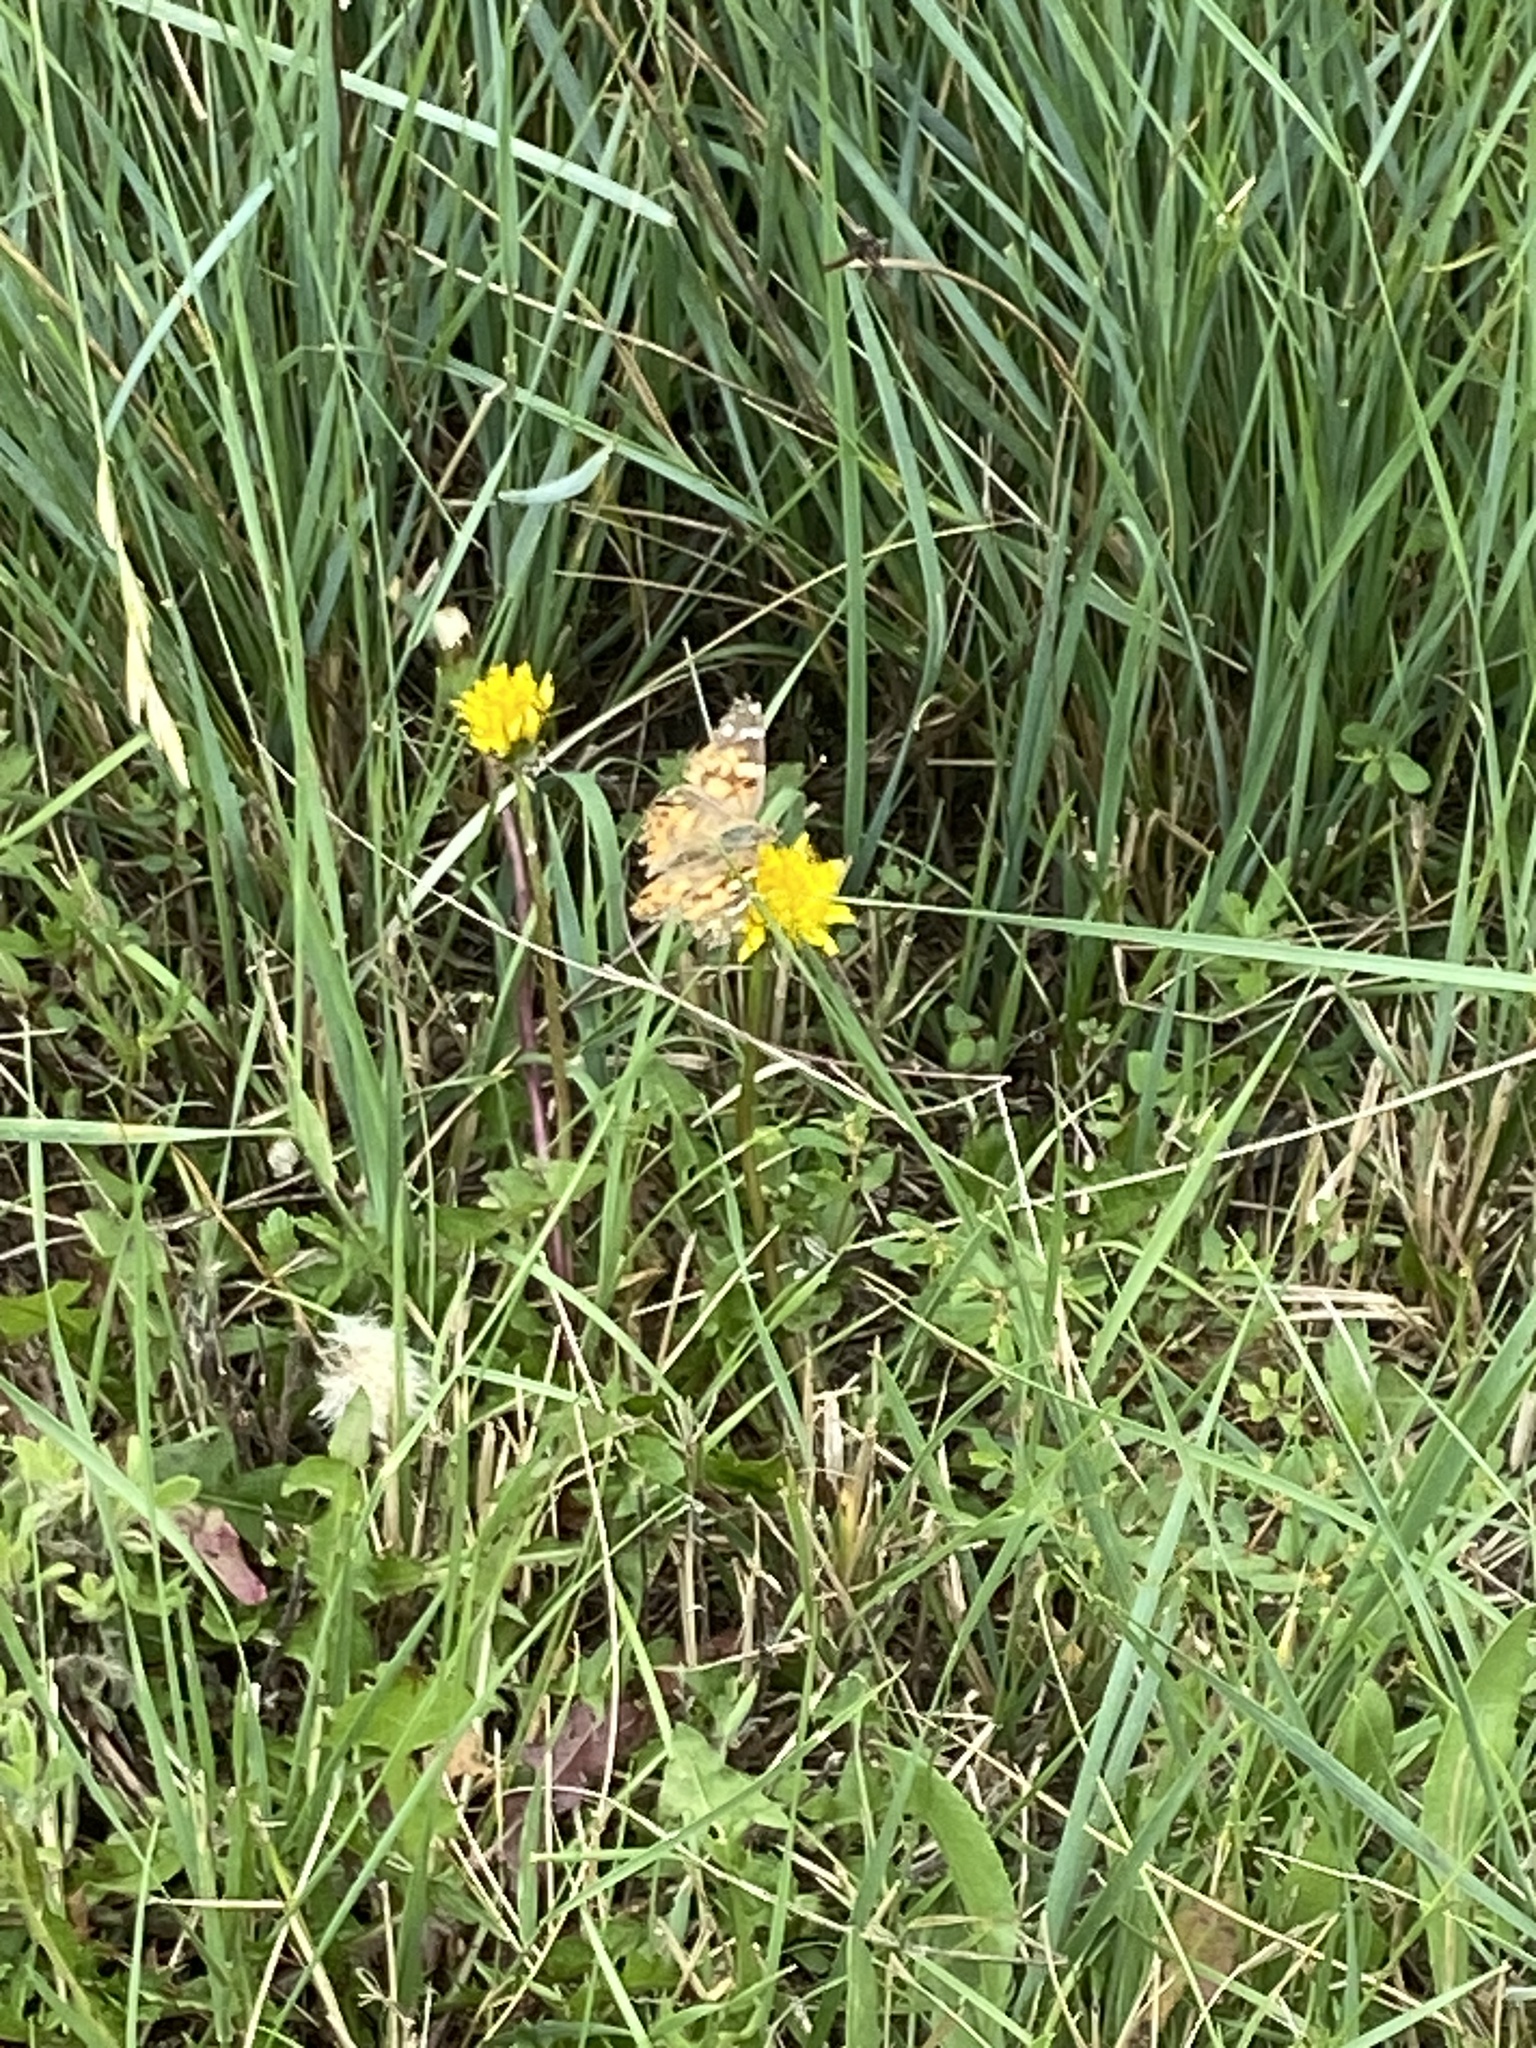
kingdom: Animalia
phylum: Arthropoda
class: Insecta
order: Lepidoptera
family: Nymphalidae
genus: Vanessa
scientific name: Vanessa cardui
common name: Painted lady
